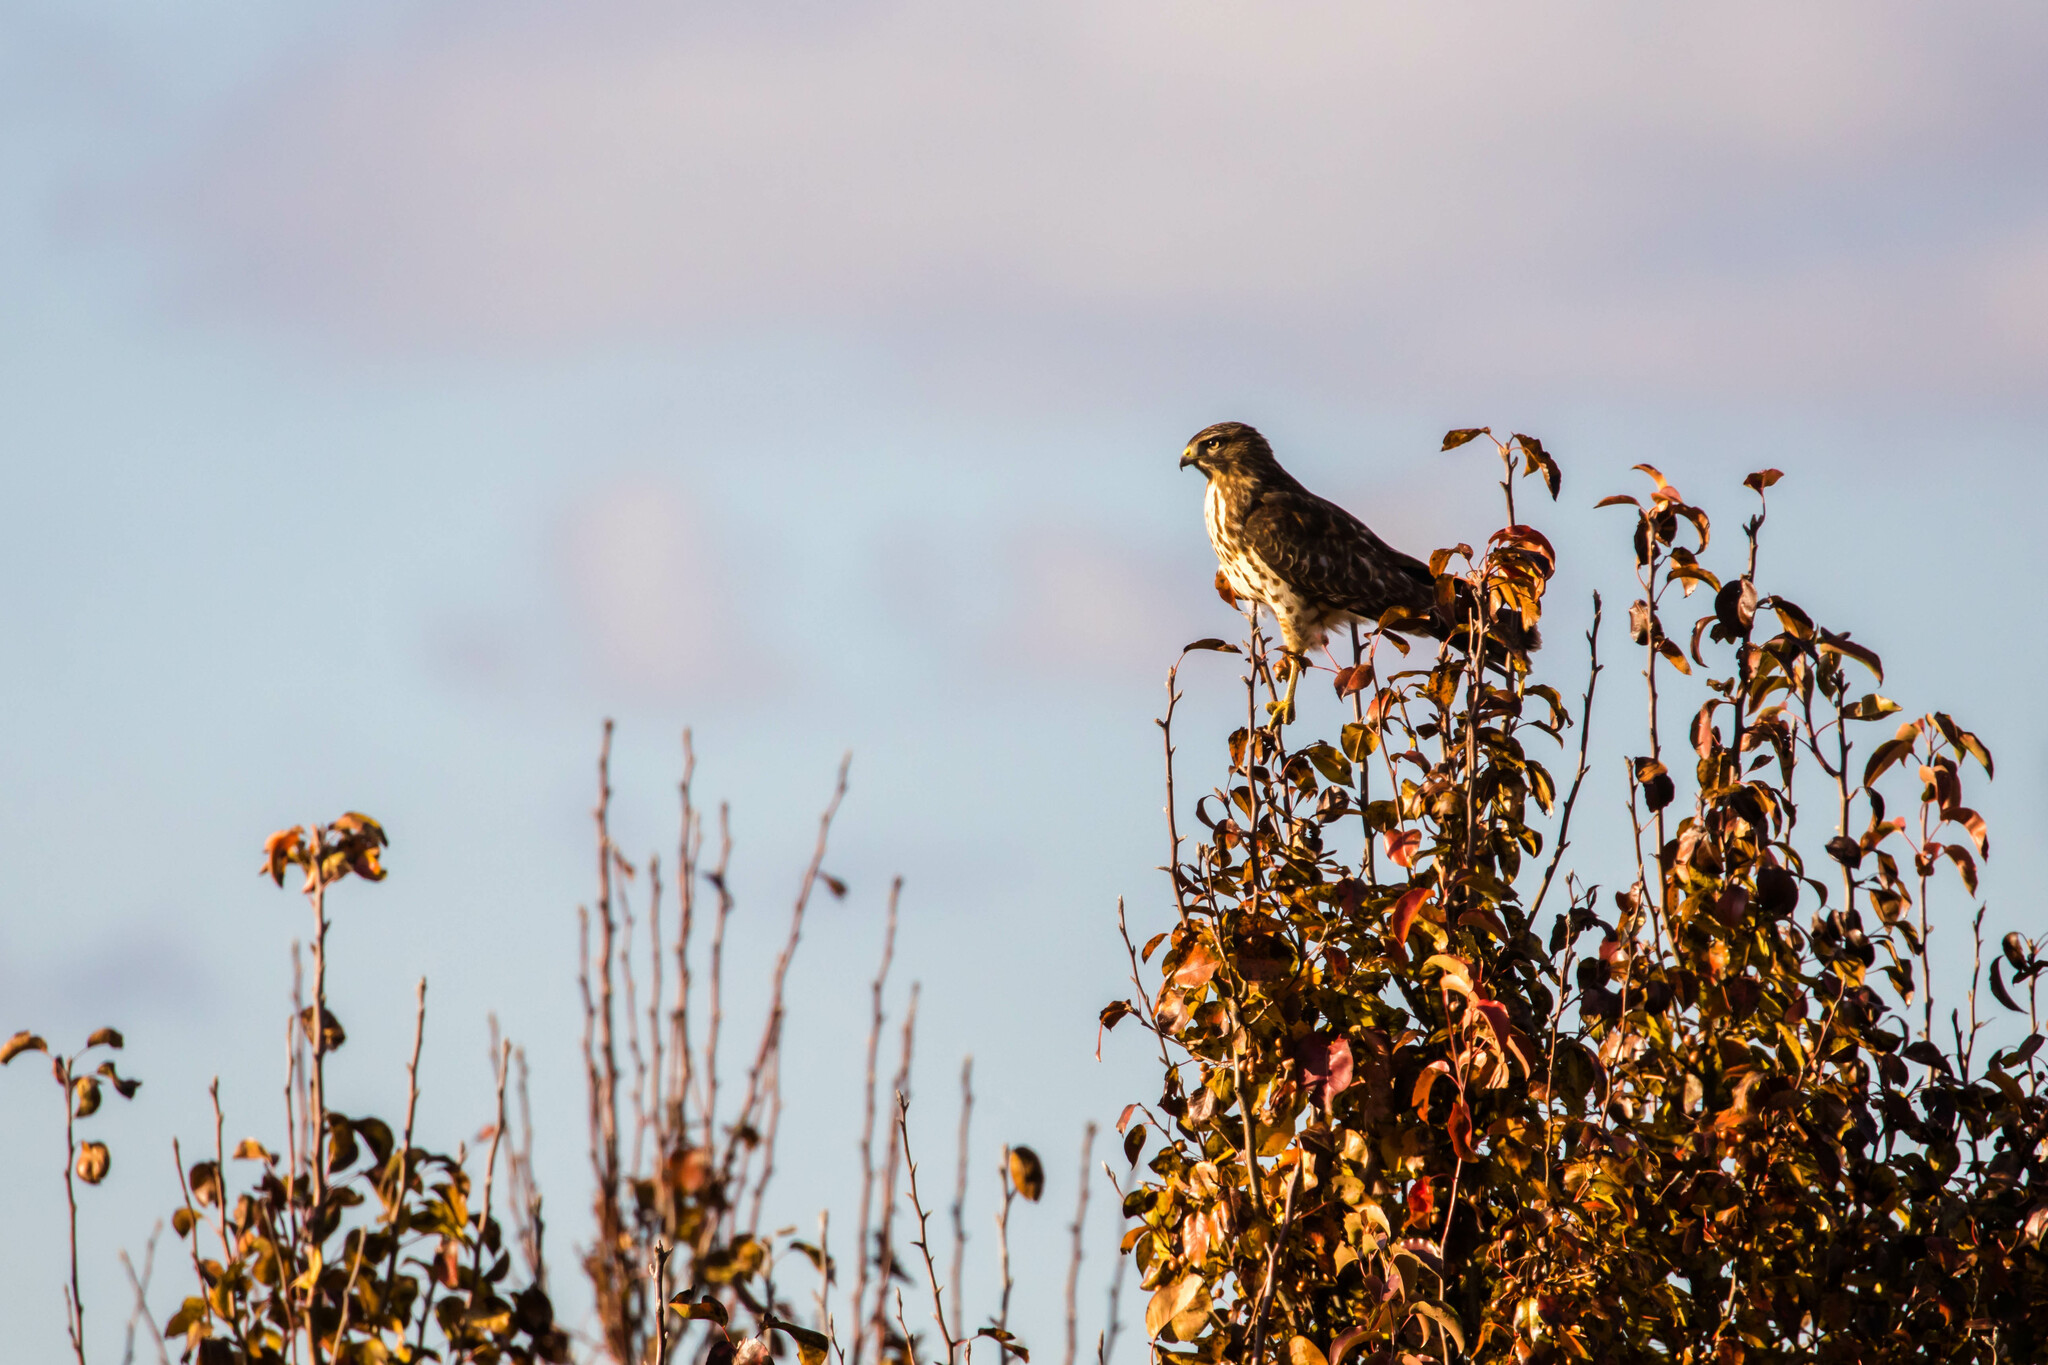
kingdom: Animalia
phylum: Chordata
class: Aves
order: Accipitriformes
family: Accipitridae
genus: Buteo
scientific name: Buteo lineatus
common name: Red-shouldered hawk
